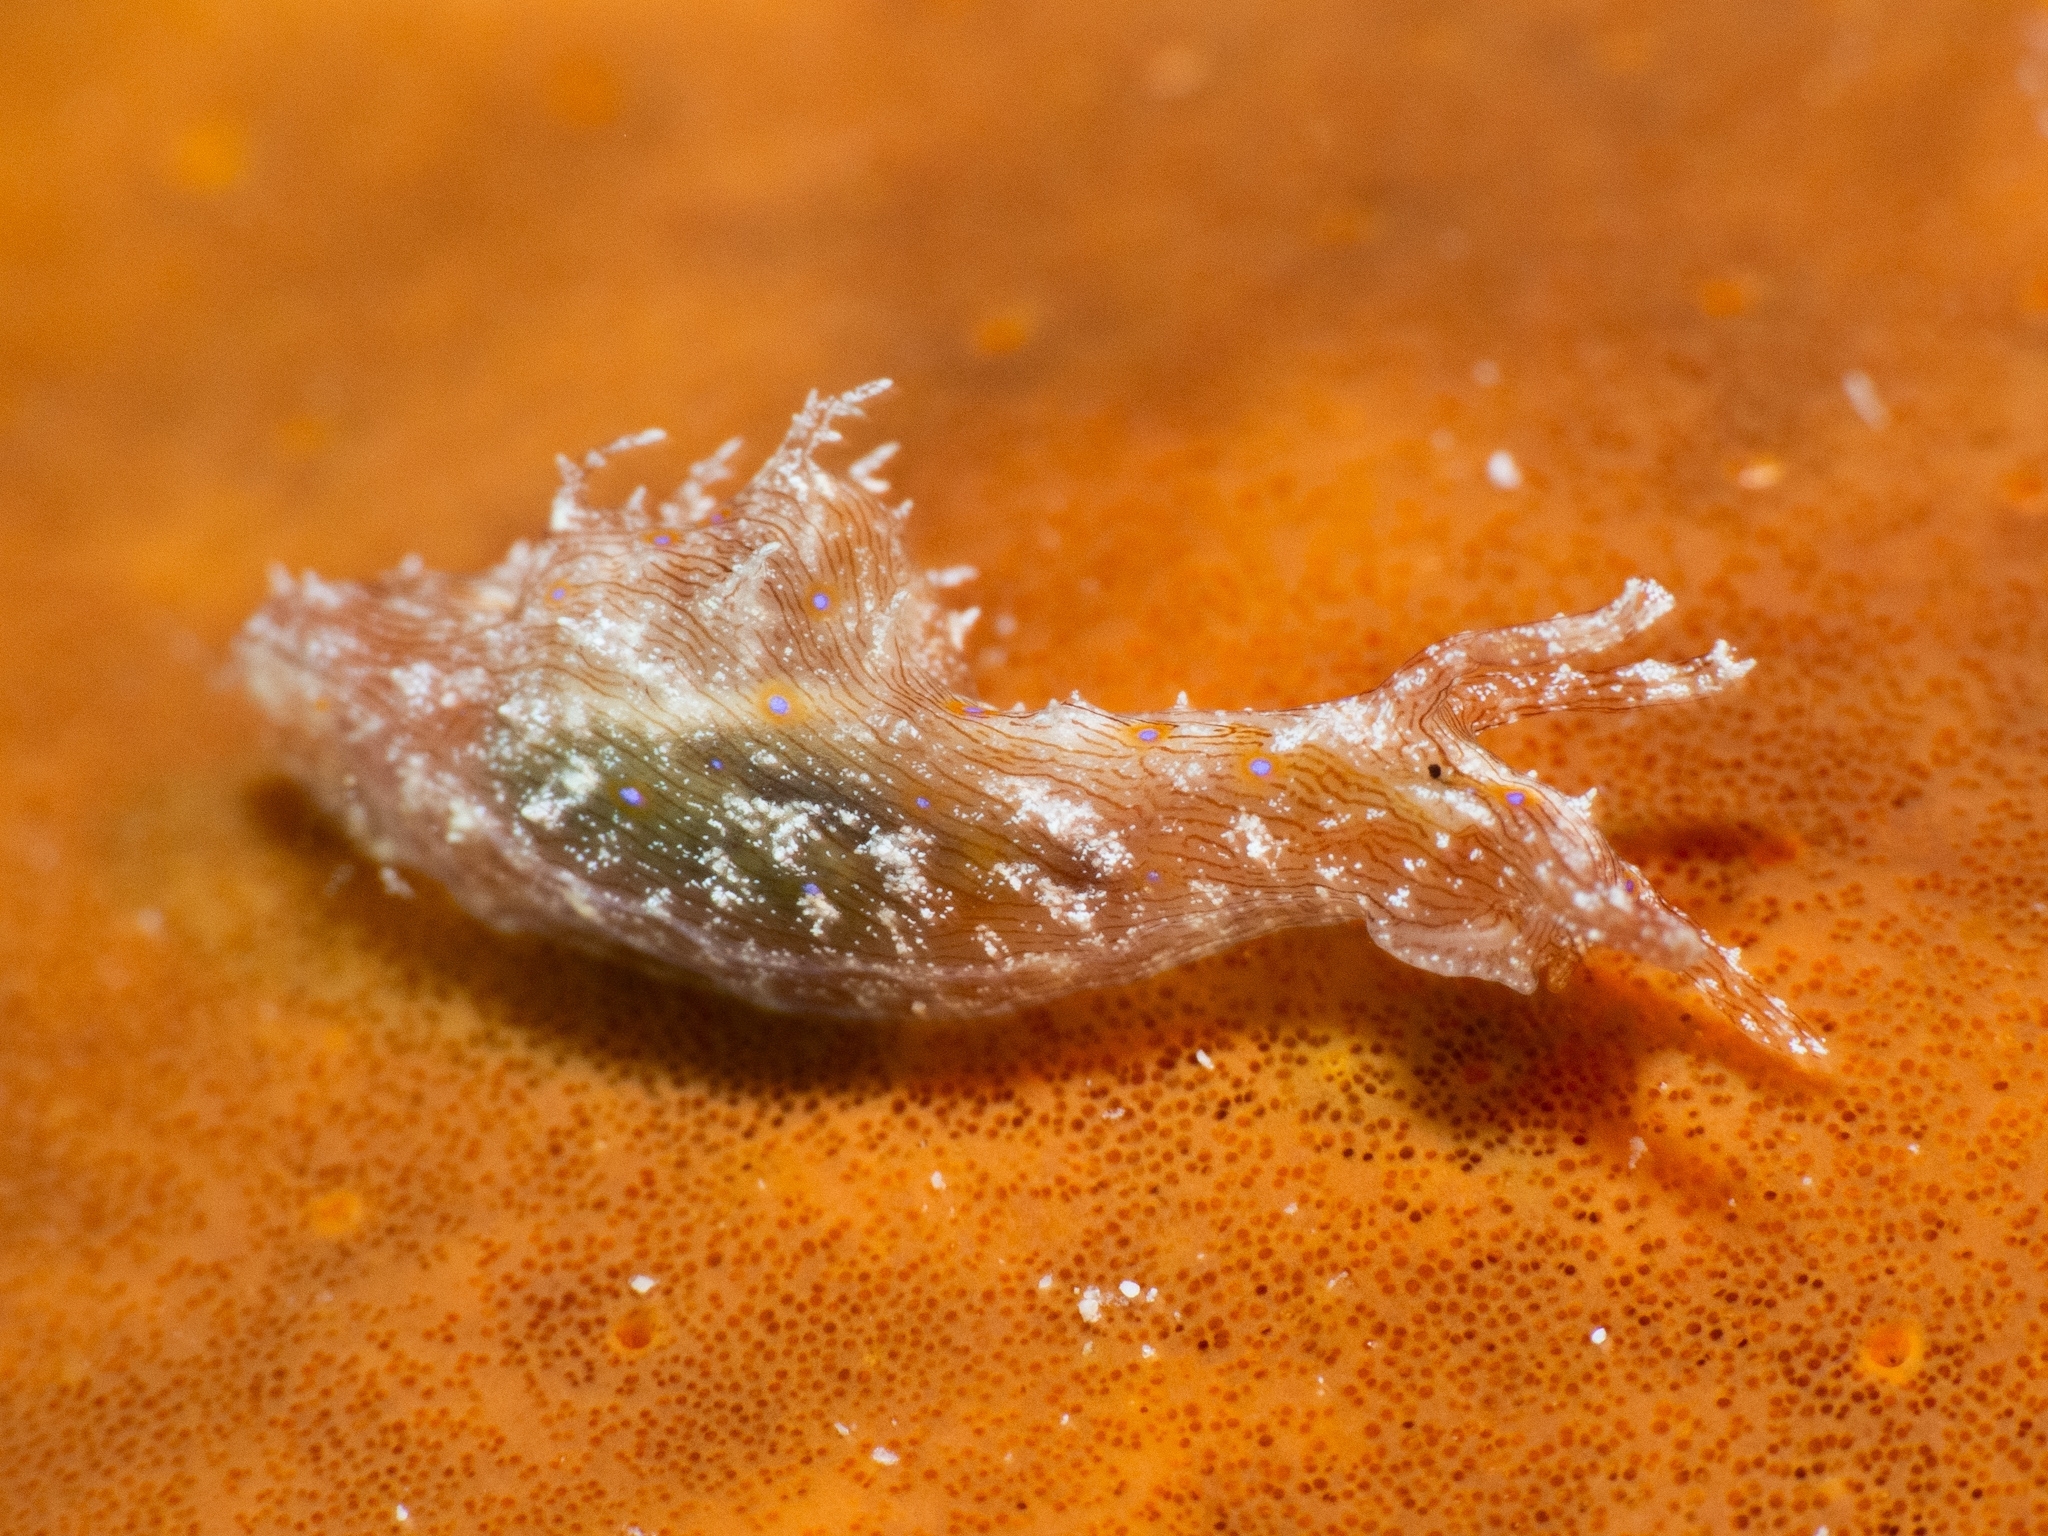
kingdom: Animalia
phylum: Mollusca
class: Gastropoda
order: Aplysiida
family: Aplysiidae
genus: Stylocheilus
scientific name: Stylocheilus polyomma
